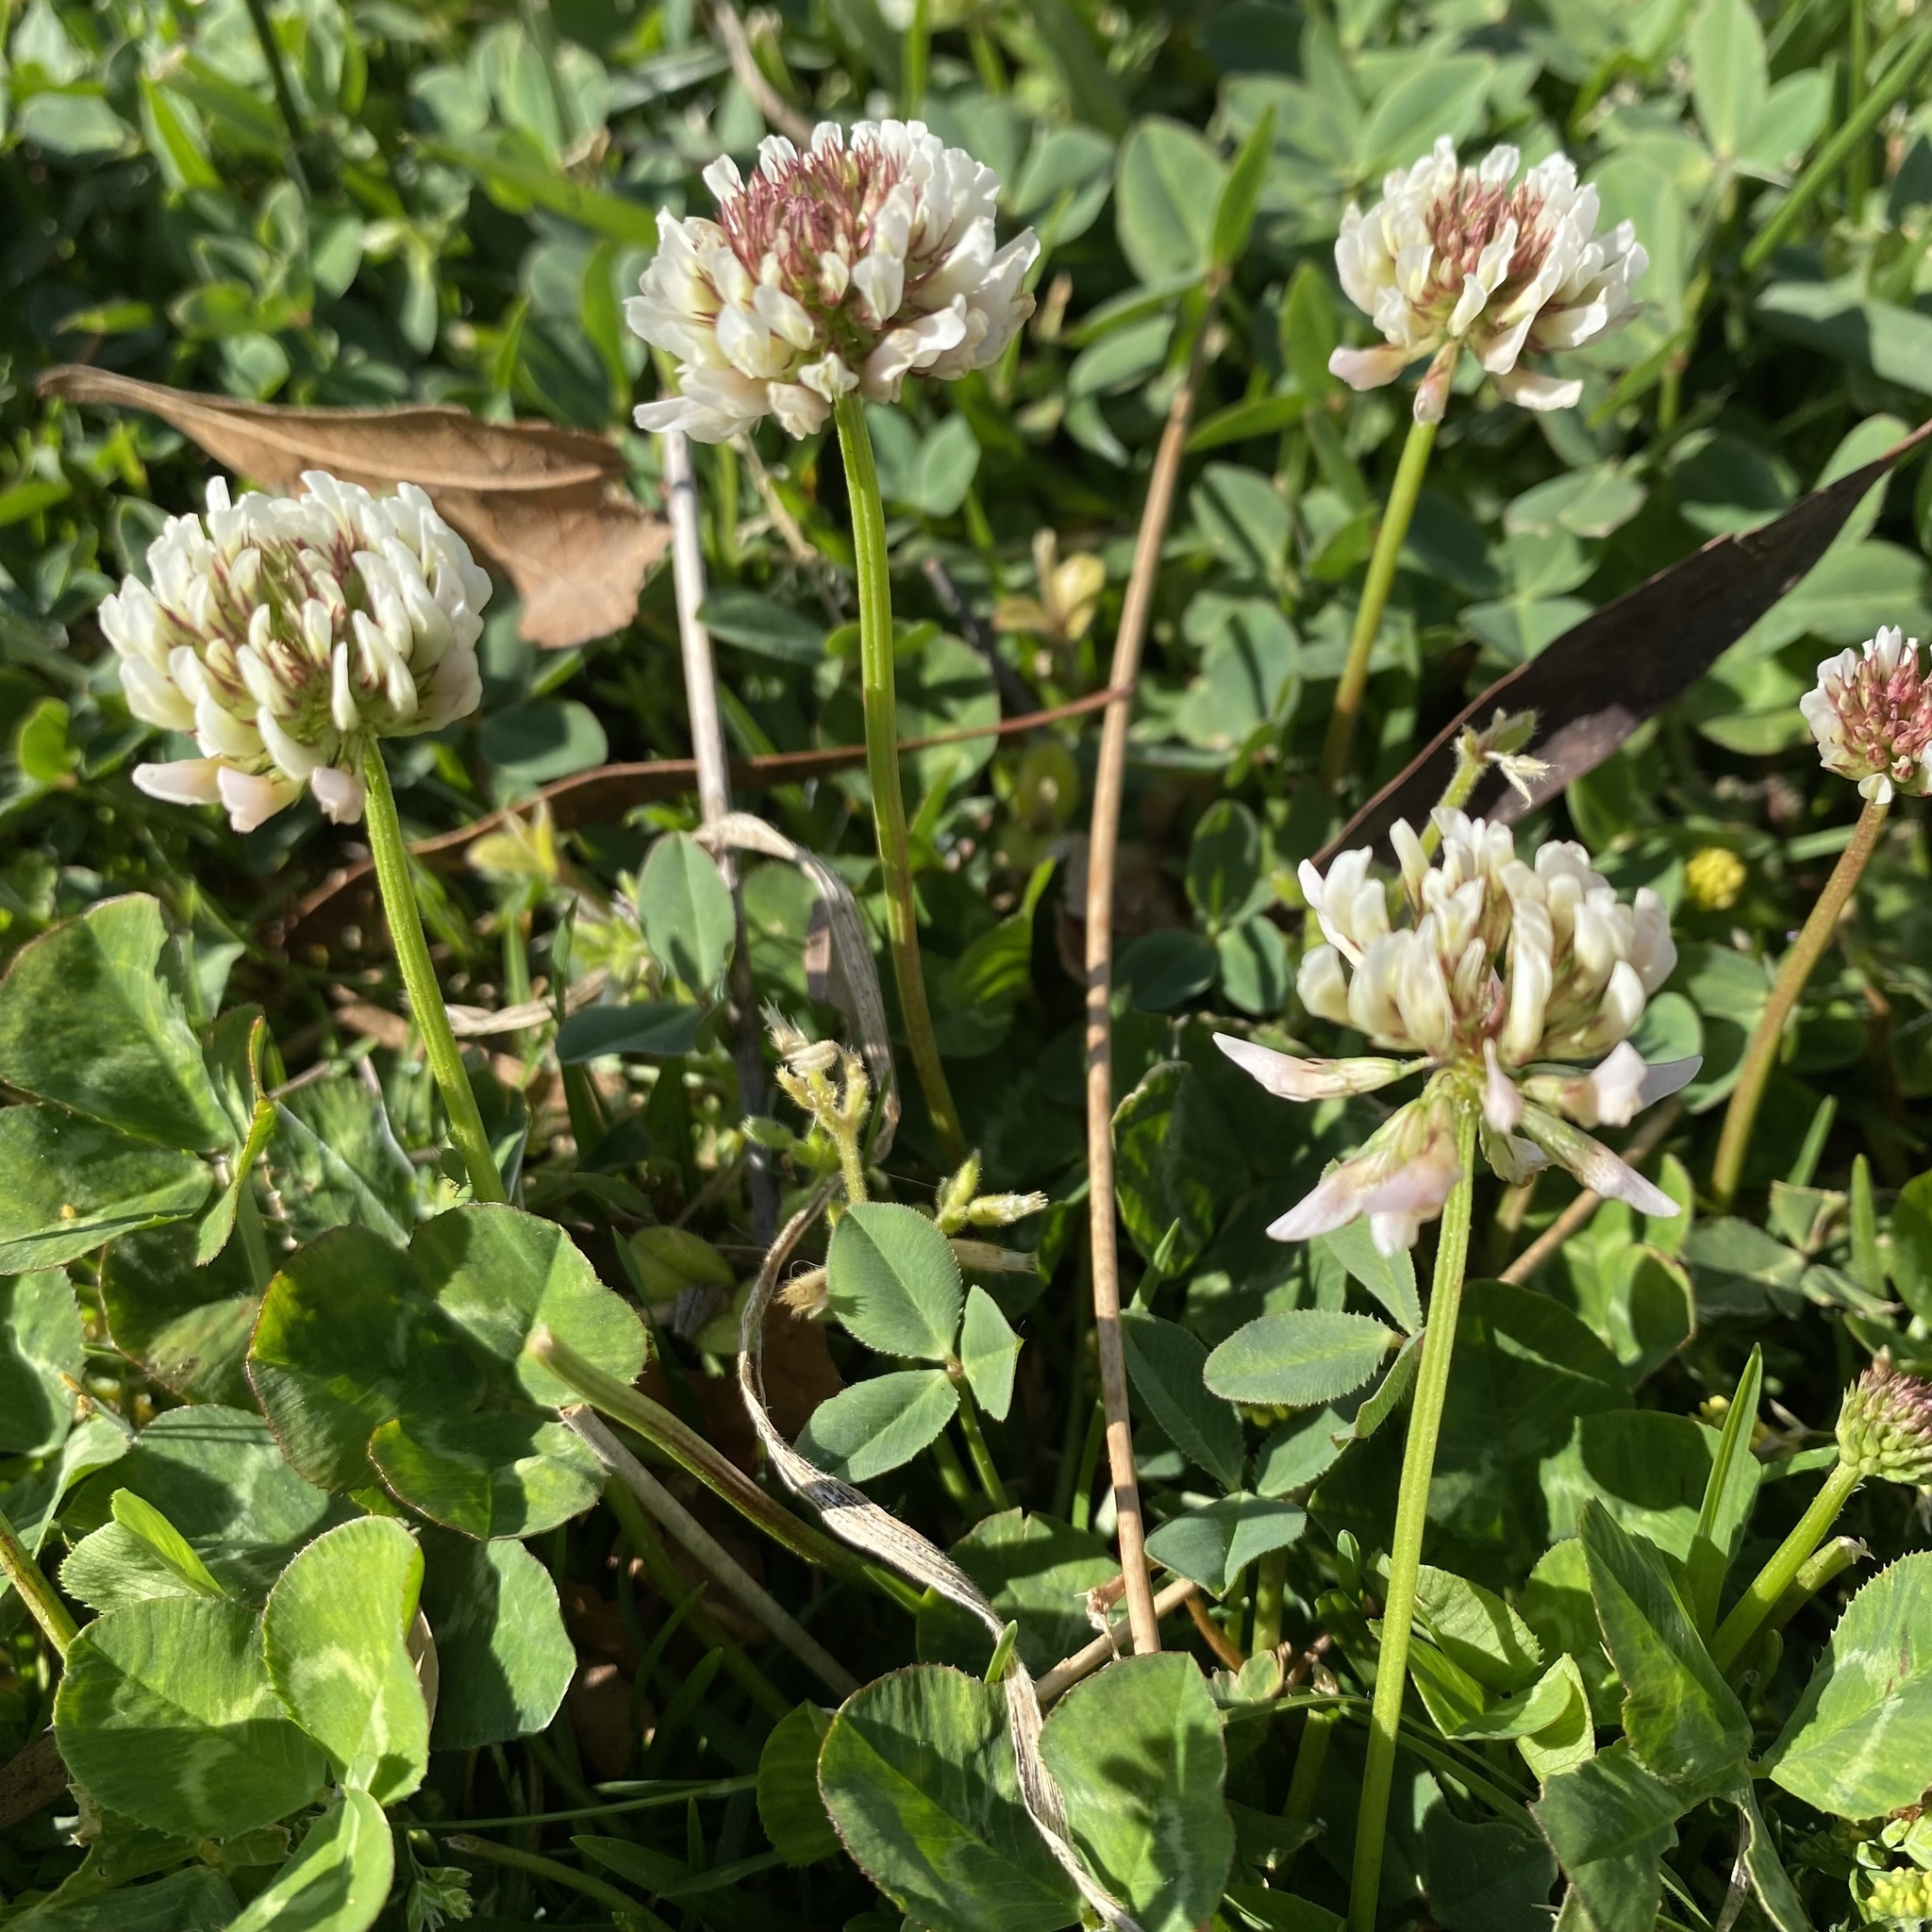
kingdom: Plantae
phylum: Tracheophyta
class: Magnoliopsida
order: Fabales
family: Fabaceae
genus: Trifolium
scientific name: Trifolium repens
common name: White clover
